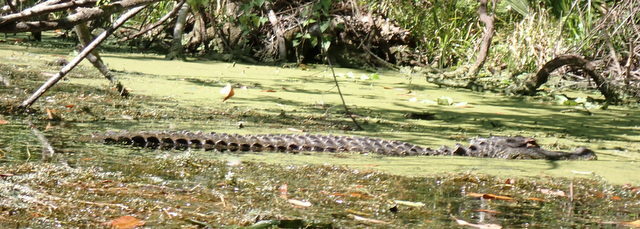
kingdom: Animalia
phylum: Chordata
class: Crocodylia
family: Alligatoridae
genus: Alligator
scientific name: Alligator mississippiensis
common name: American alligator
